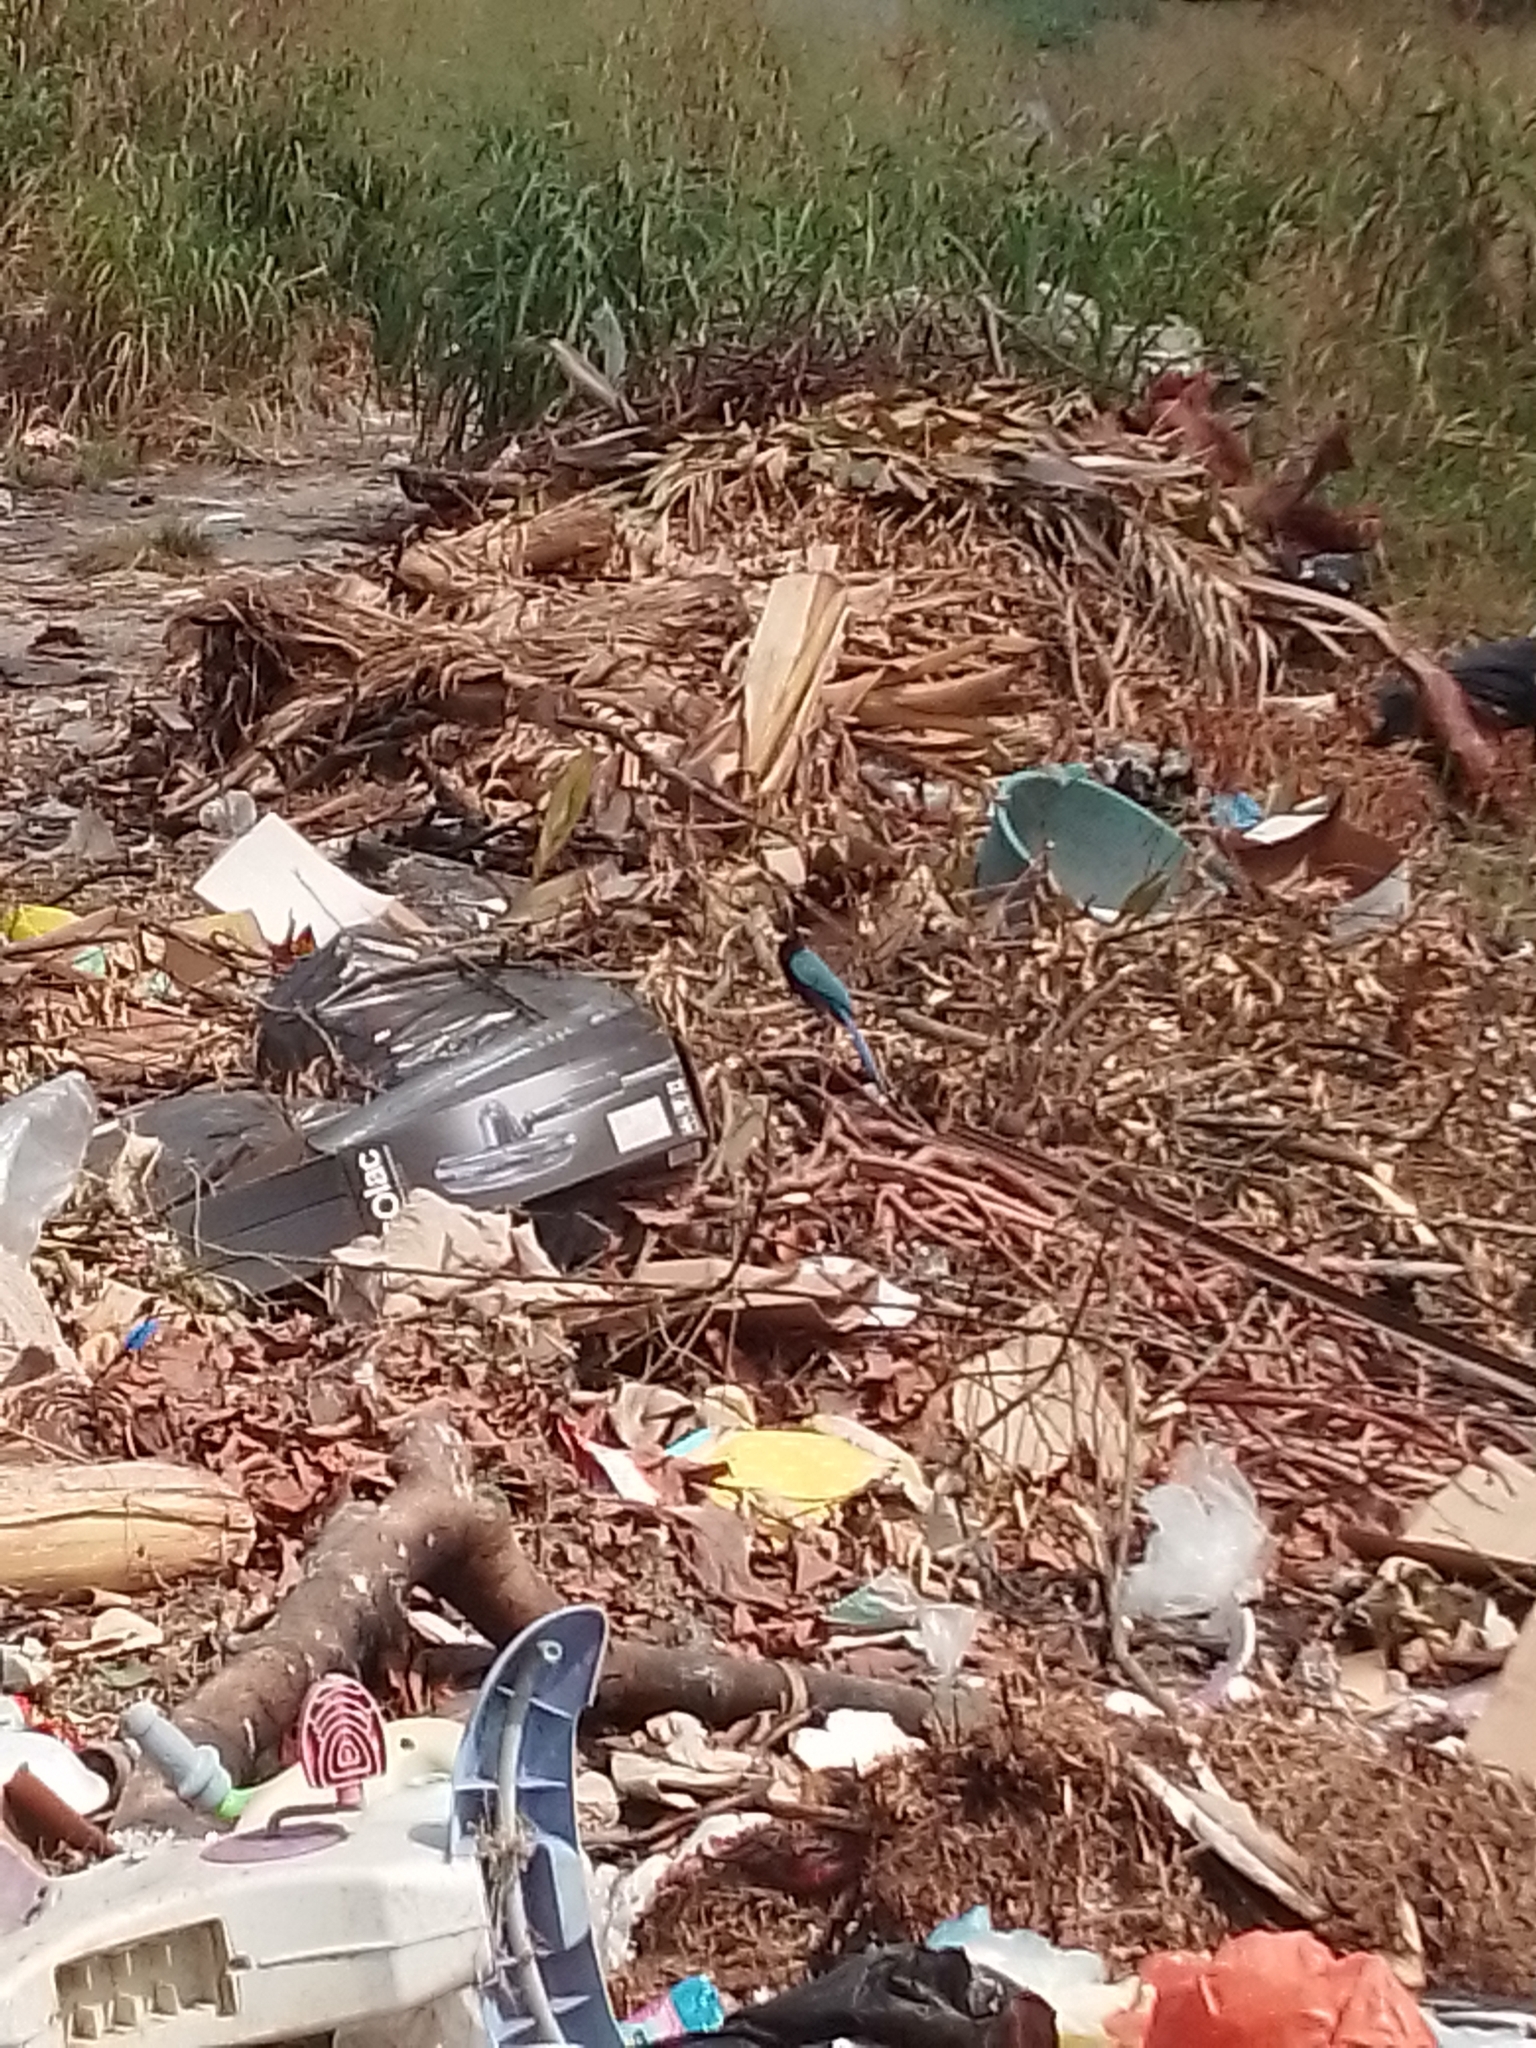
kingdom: Animalia
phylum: Chordata
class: Aves
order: Passeriformes
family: Corvidae
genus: Cyanocorax
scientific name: Cyanocorax yucatanicus
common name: Yucatan jay
